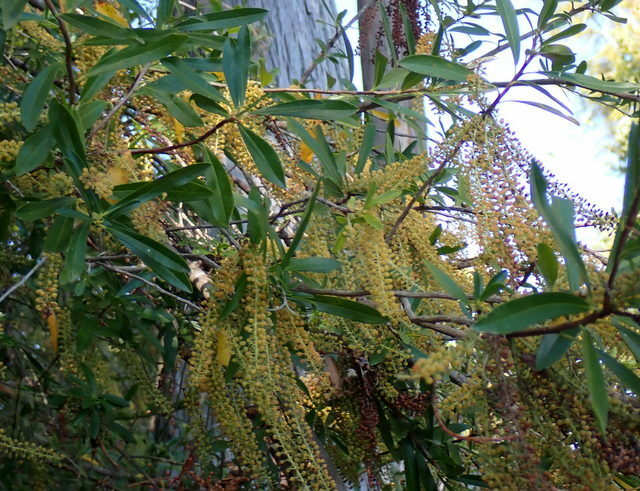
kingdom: Plantae
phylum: Tracheophyta
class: Magnoliopsida
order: Ericales
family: Cyrillaceae
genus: Cyrilla
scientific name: Cyrilla racemiflora
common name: Black titi
